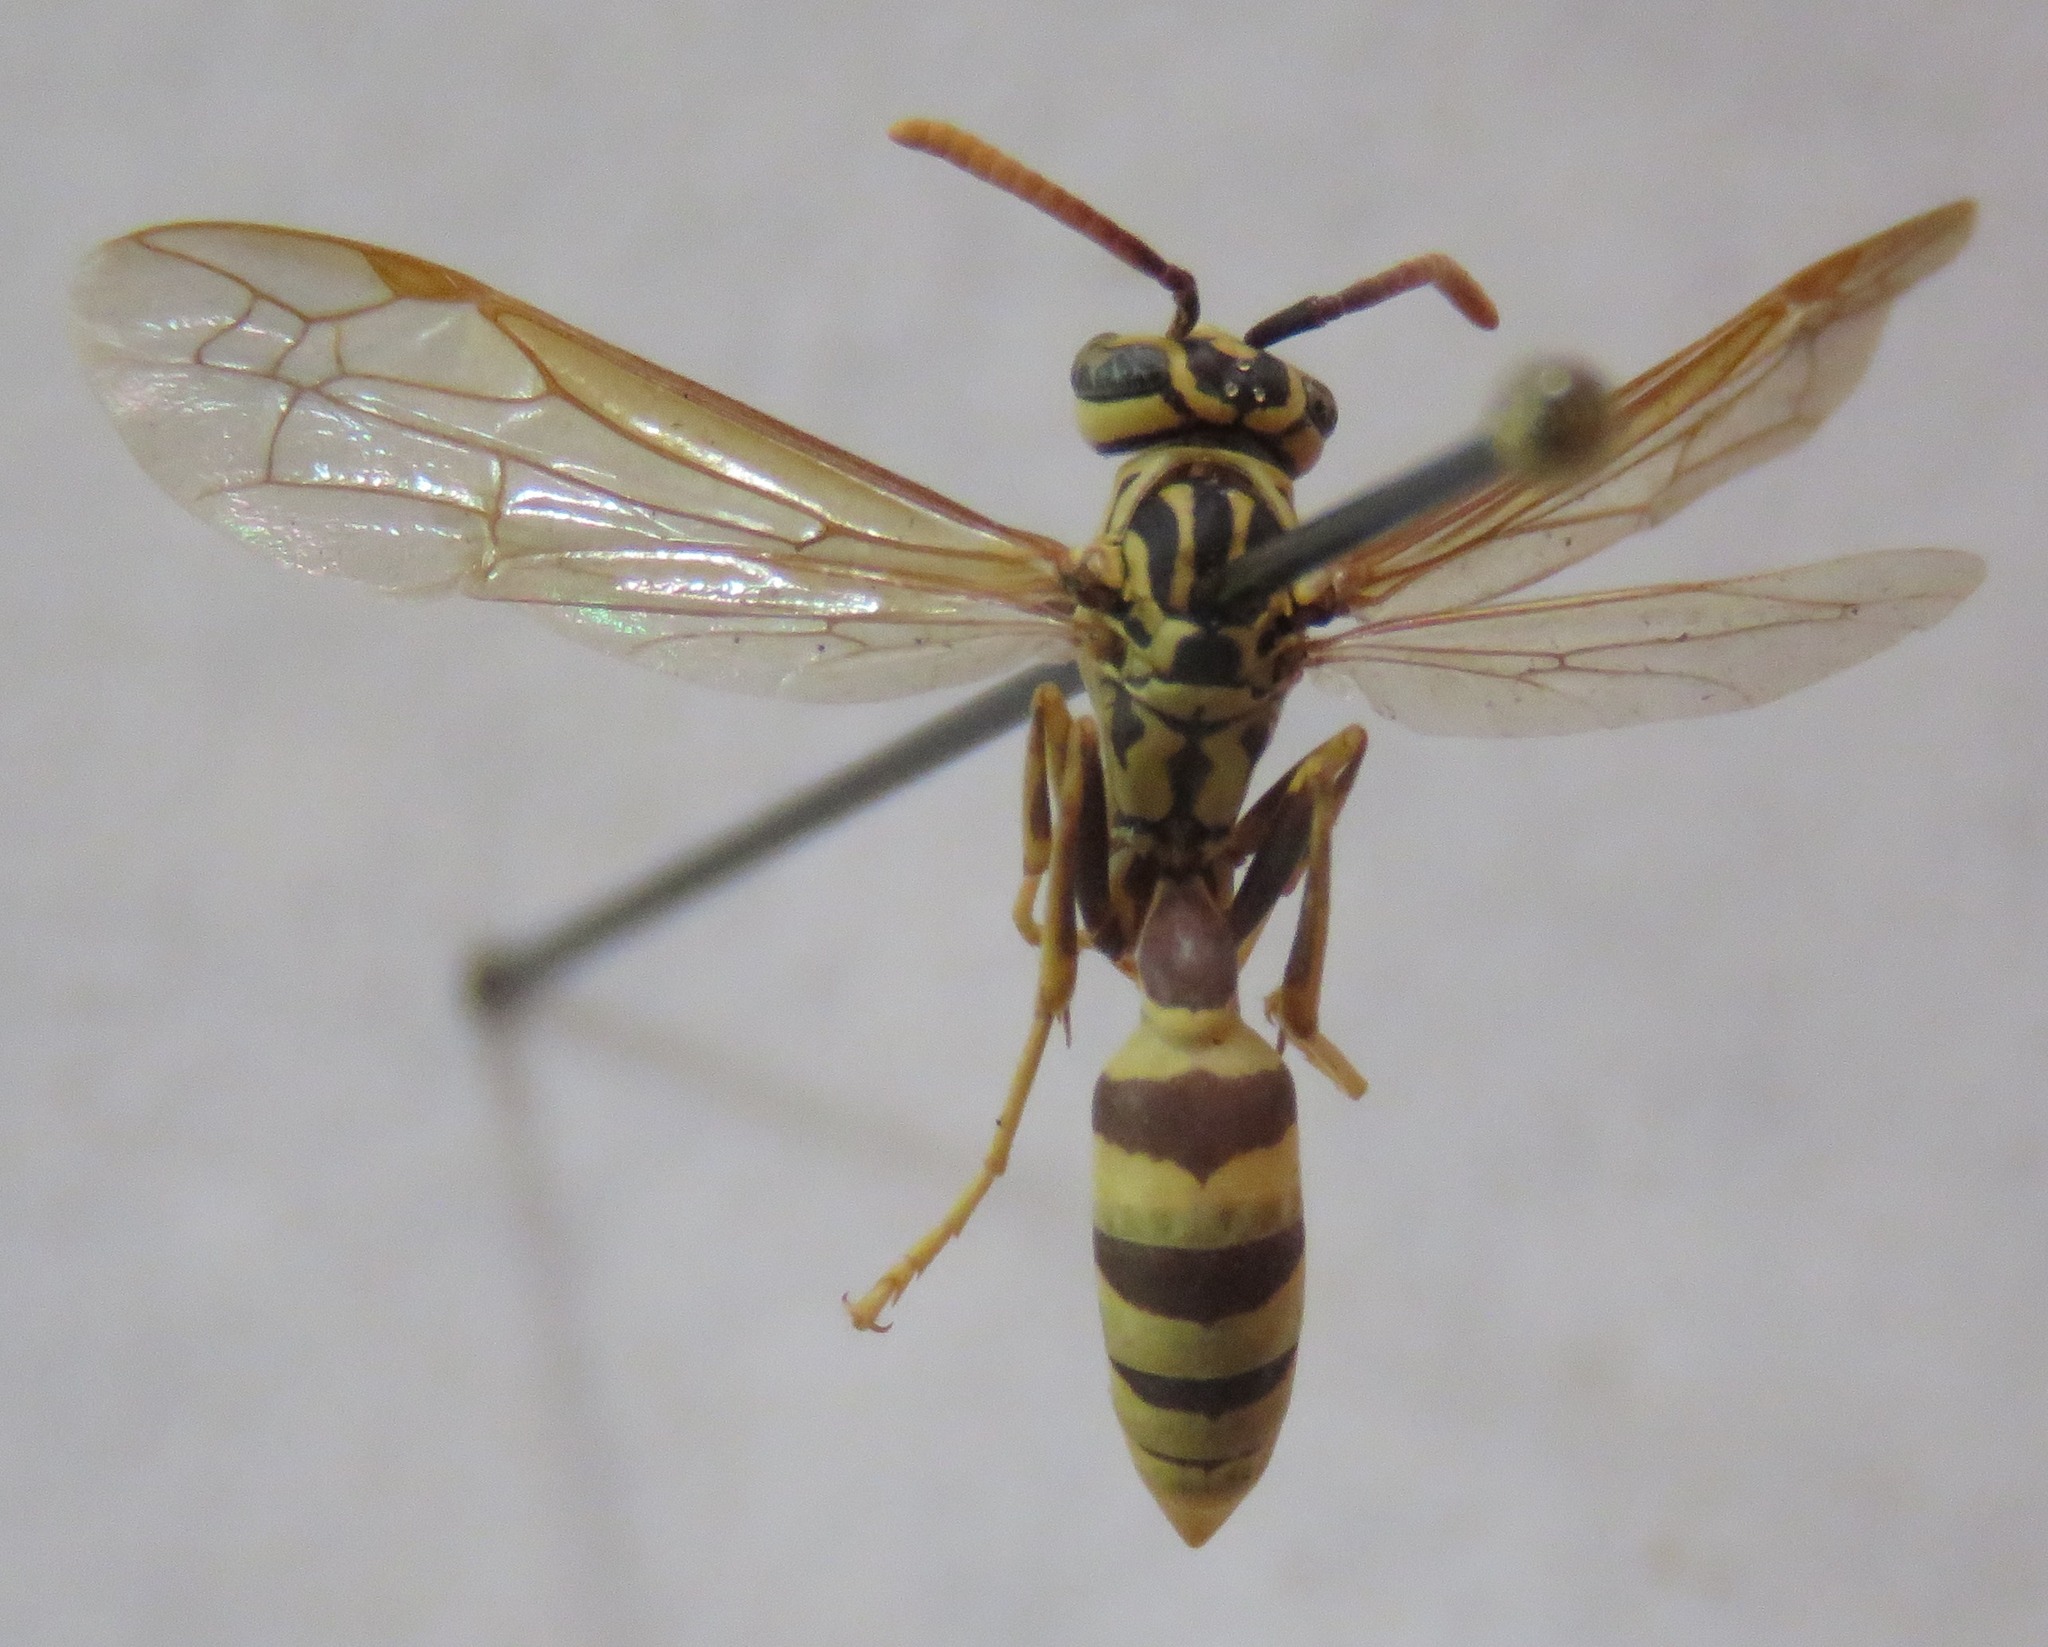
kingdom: Animalia
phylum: Arthropoda
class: Insecta
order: Hymenoptera
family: Vespidae
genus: Agelaia
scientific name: Agelaia areata
